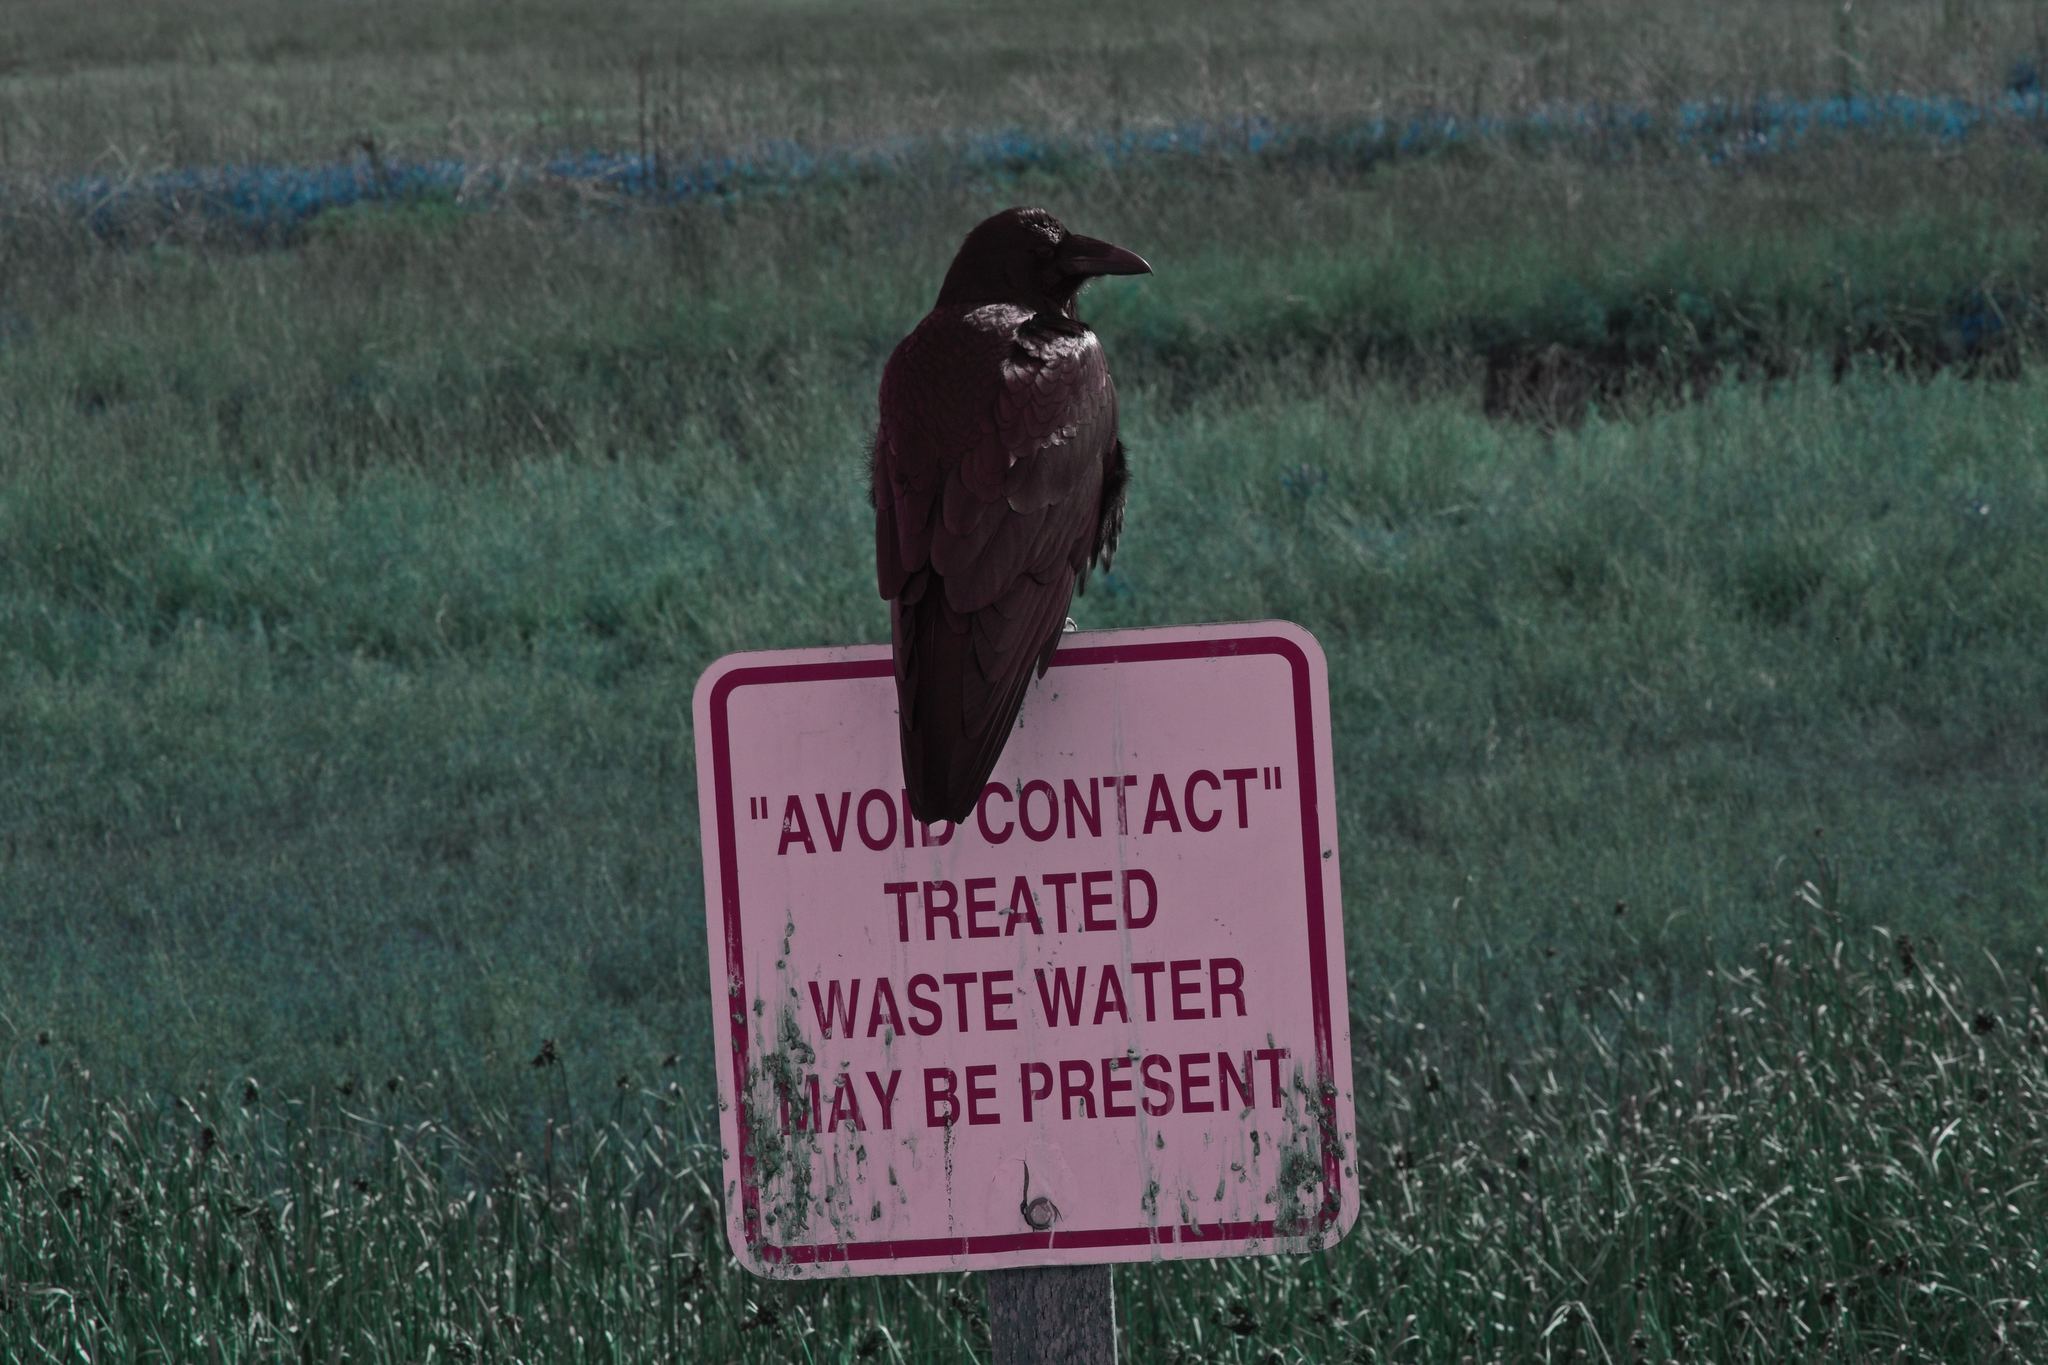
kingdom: Animalia
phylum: Chordata
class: Aves
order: Passeriformes
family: Corvidae
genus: Corvus
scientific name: Corvus corax
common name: Common raven
